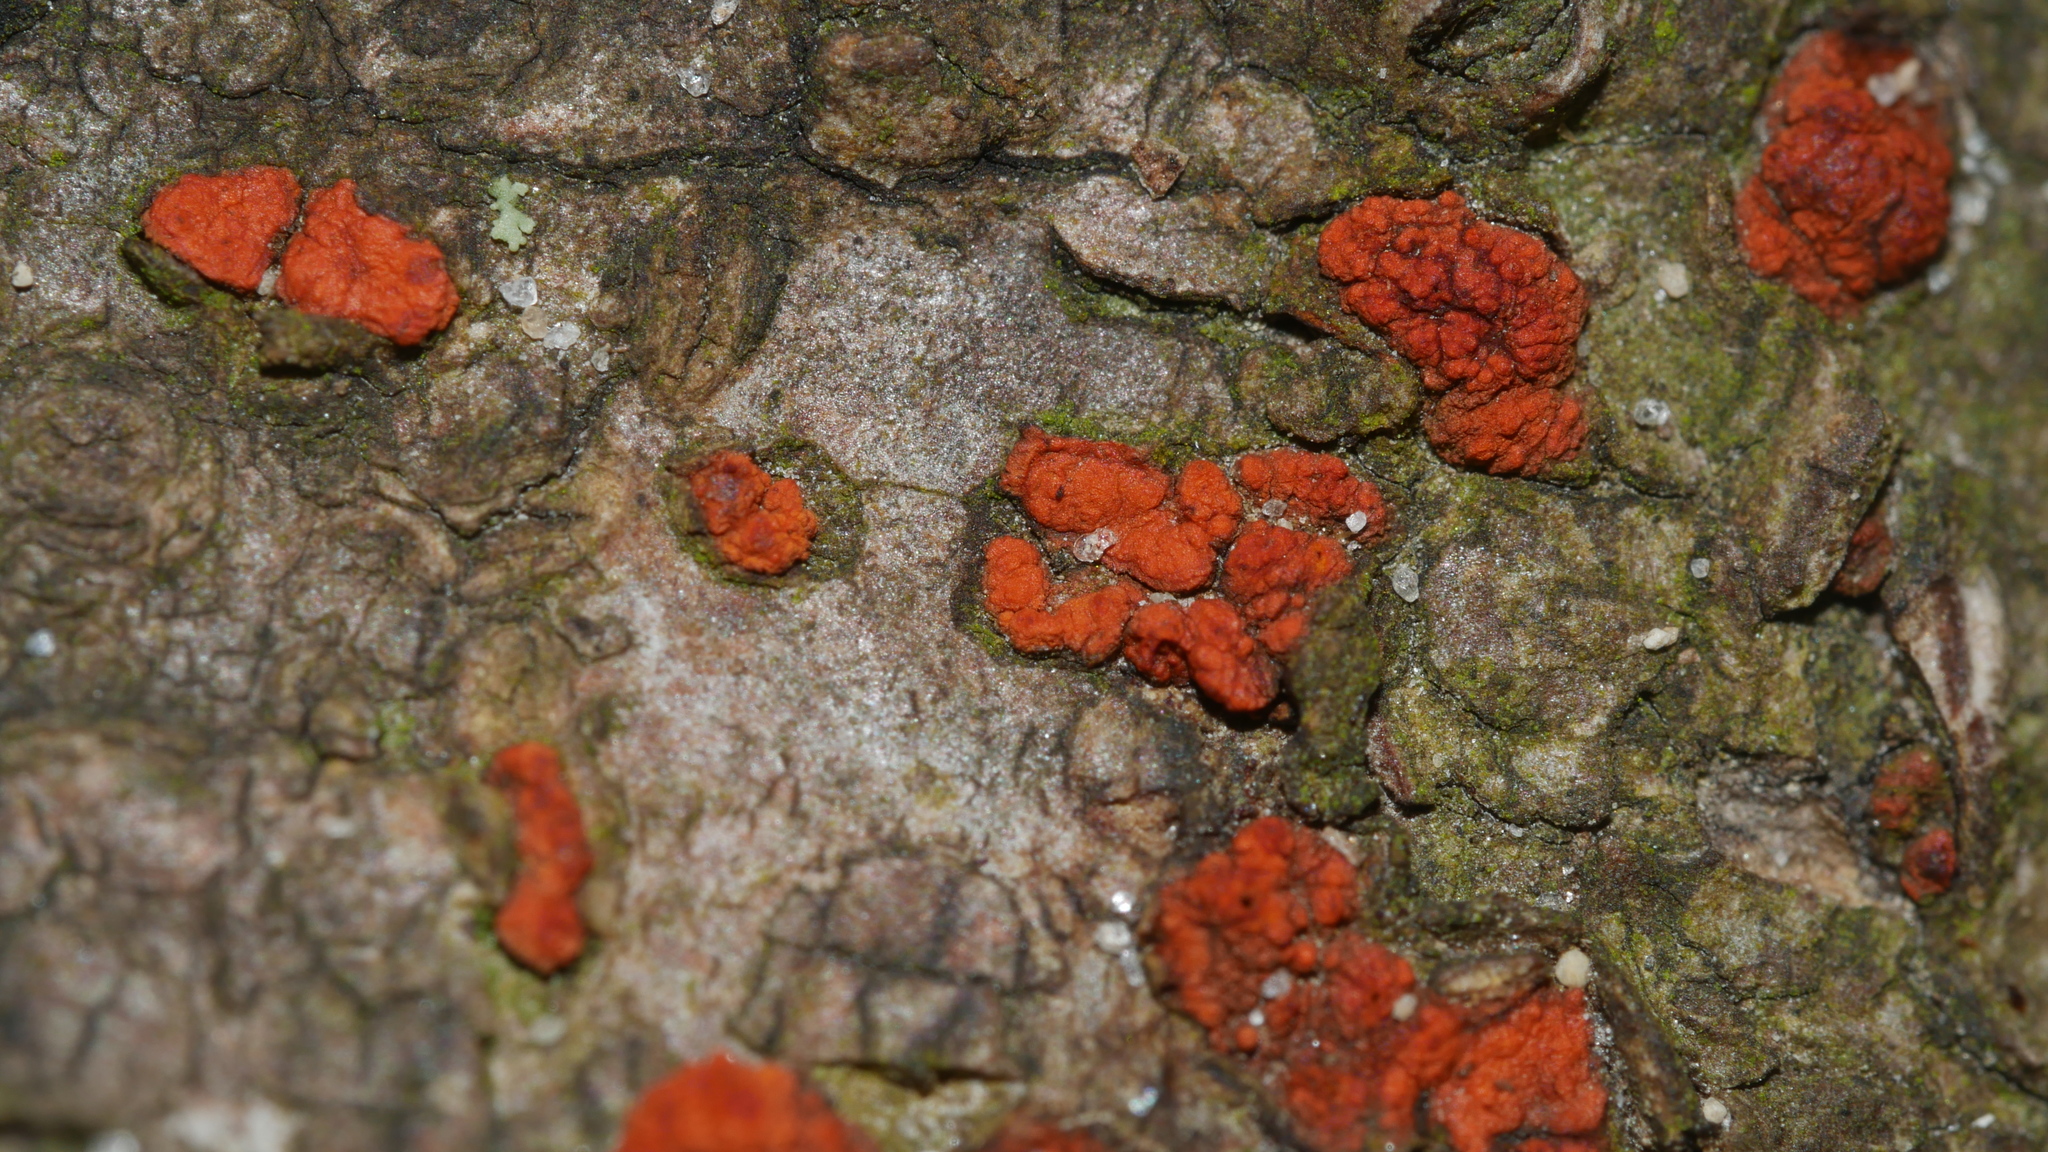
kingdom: Fungi
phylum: Ascomycota
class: Sordariomycetes
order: Diaporthales
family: Cryphonectriaceae
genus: Amphilogia
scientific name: Amphilogia gyrosa
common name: Orange hobnail canker
